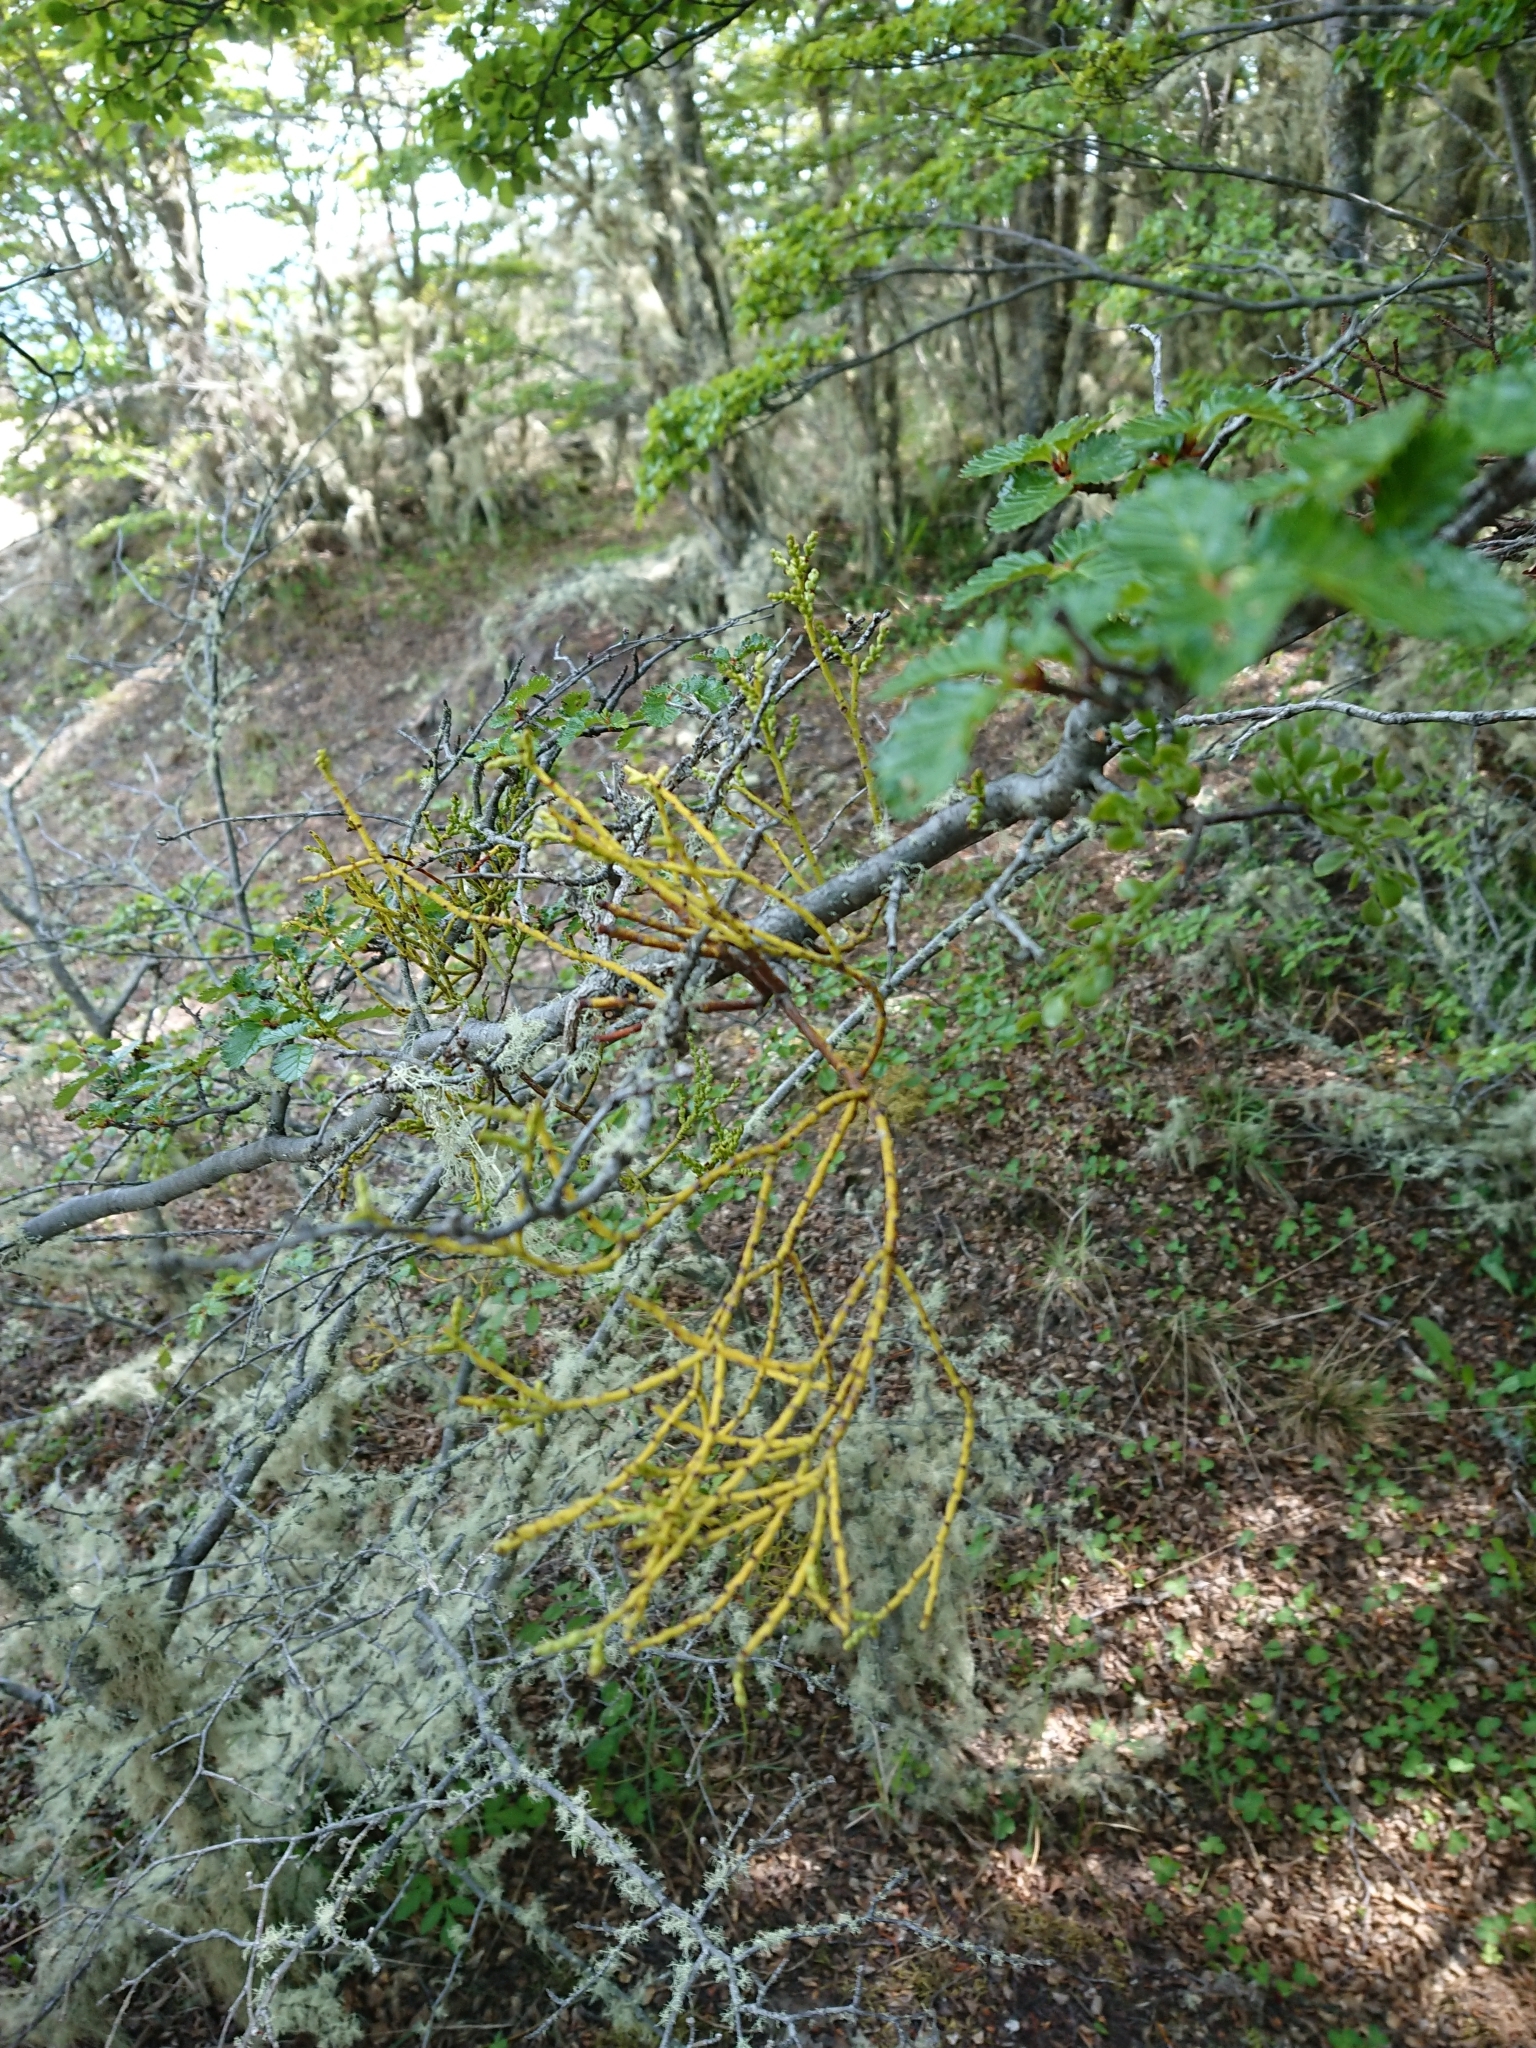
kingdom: Plantae
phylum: Tracheophyta
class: Magnoliopsida
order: Santalales
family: Misodendraceae
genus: Misodendrum
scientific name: Misodendrum punctulatum
